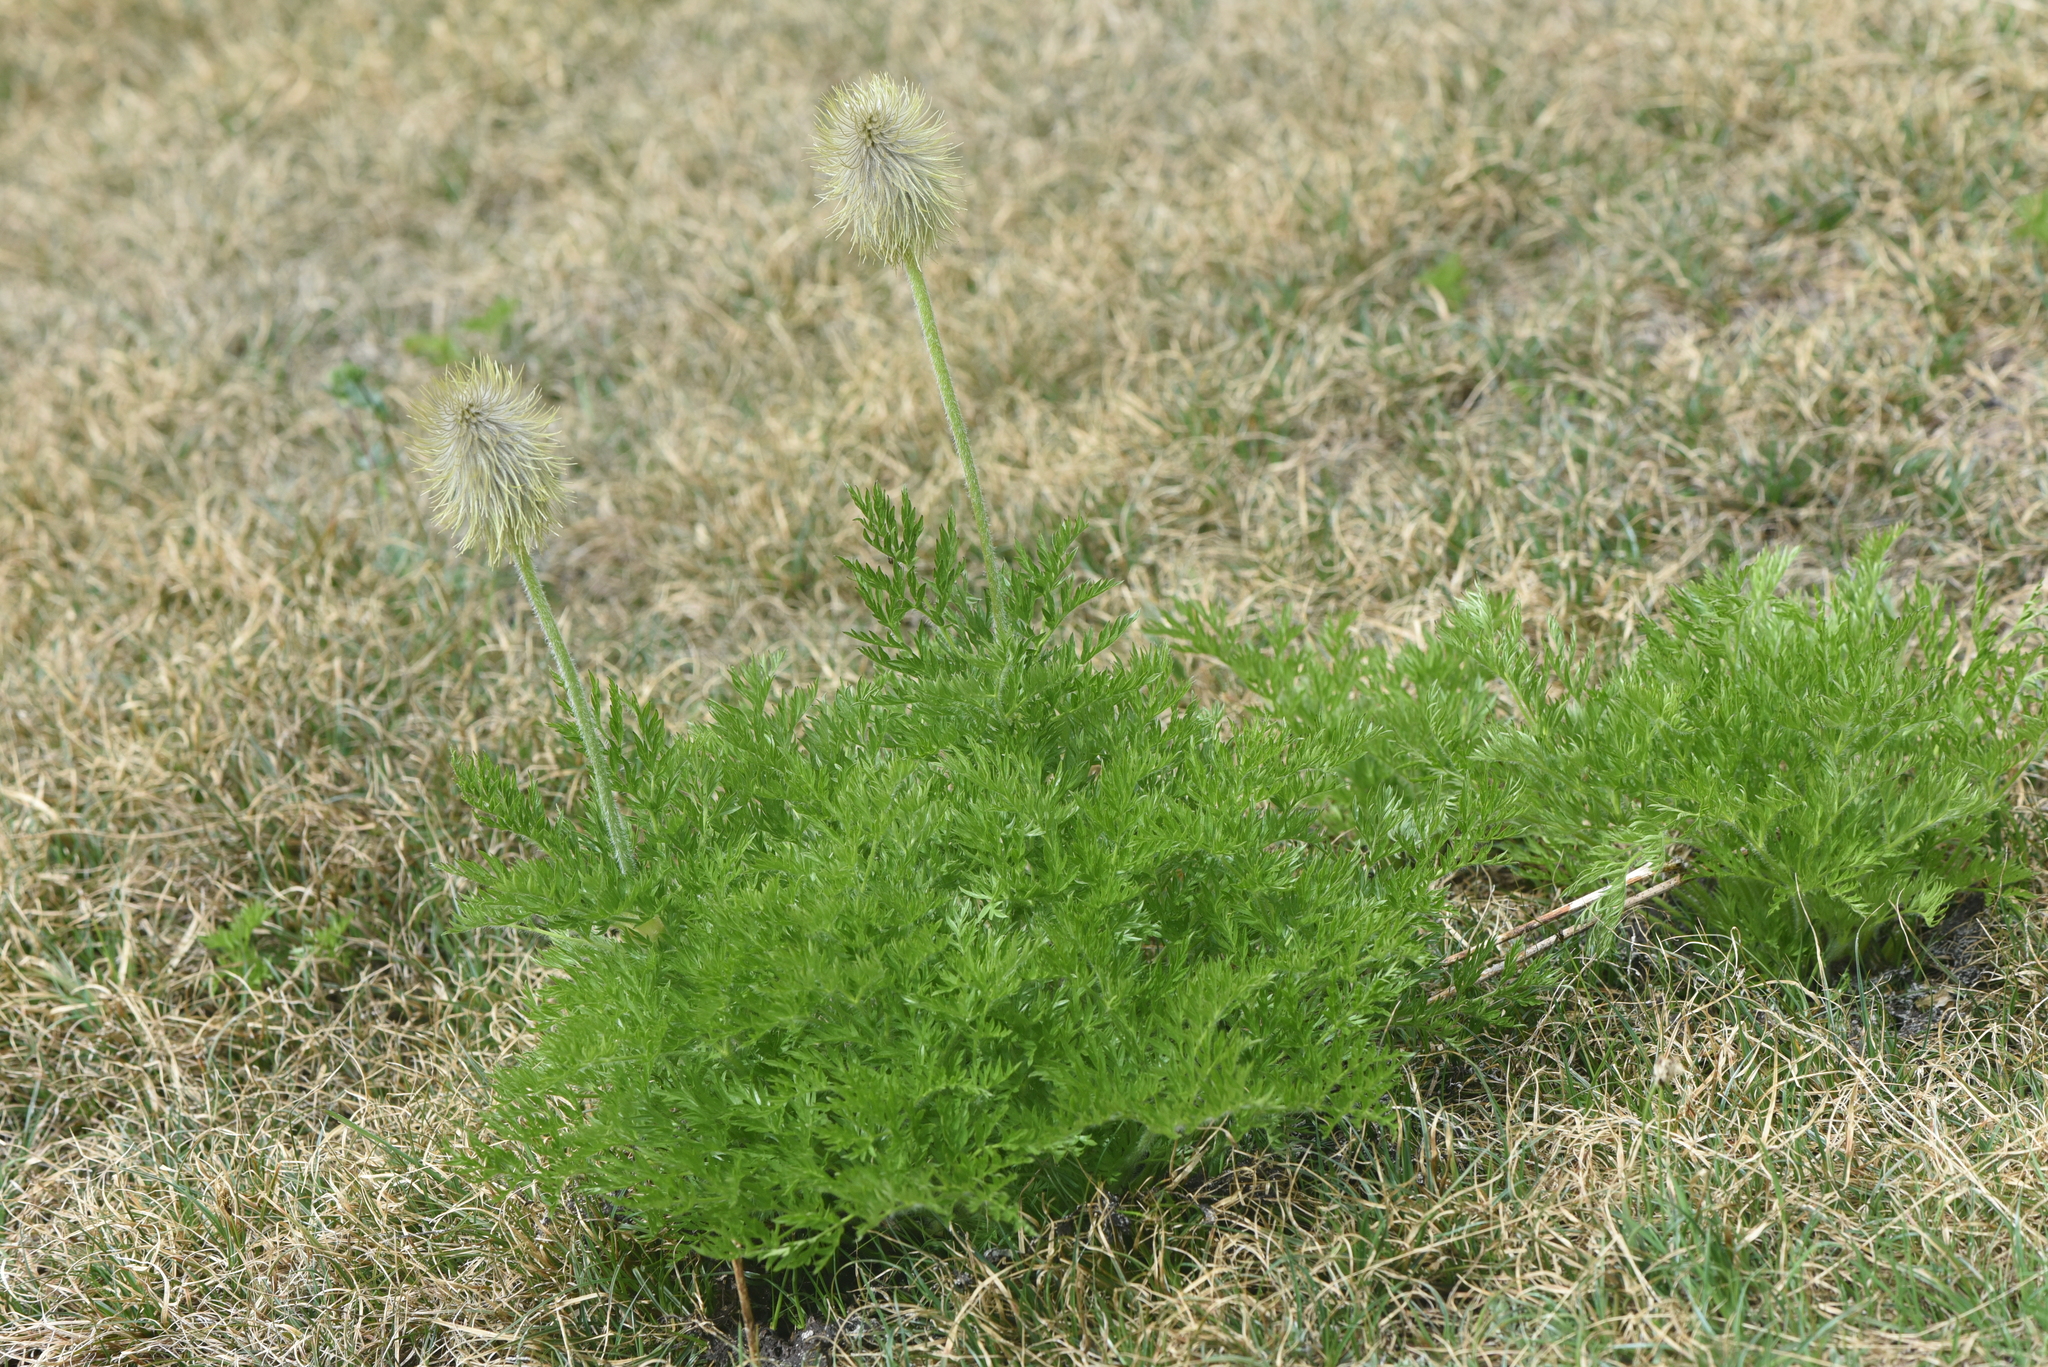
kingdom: Plantae
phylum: Tracheophyta
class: Magnoliopsida
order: Ranunculales
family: Ranunculaceae
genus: Pulsatilla
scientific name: Pulsatilla occidentalis
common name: Mountain pasqueflower
